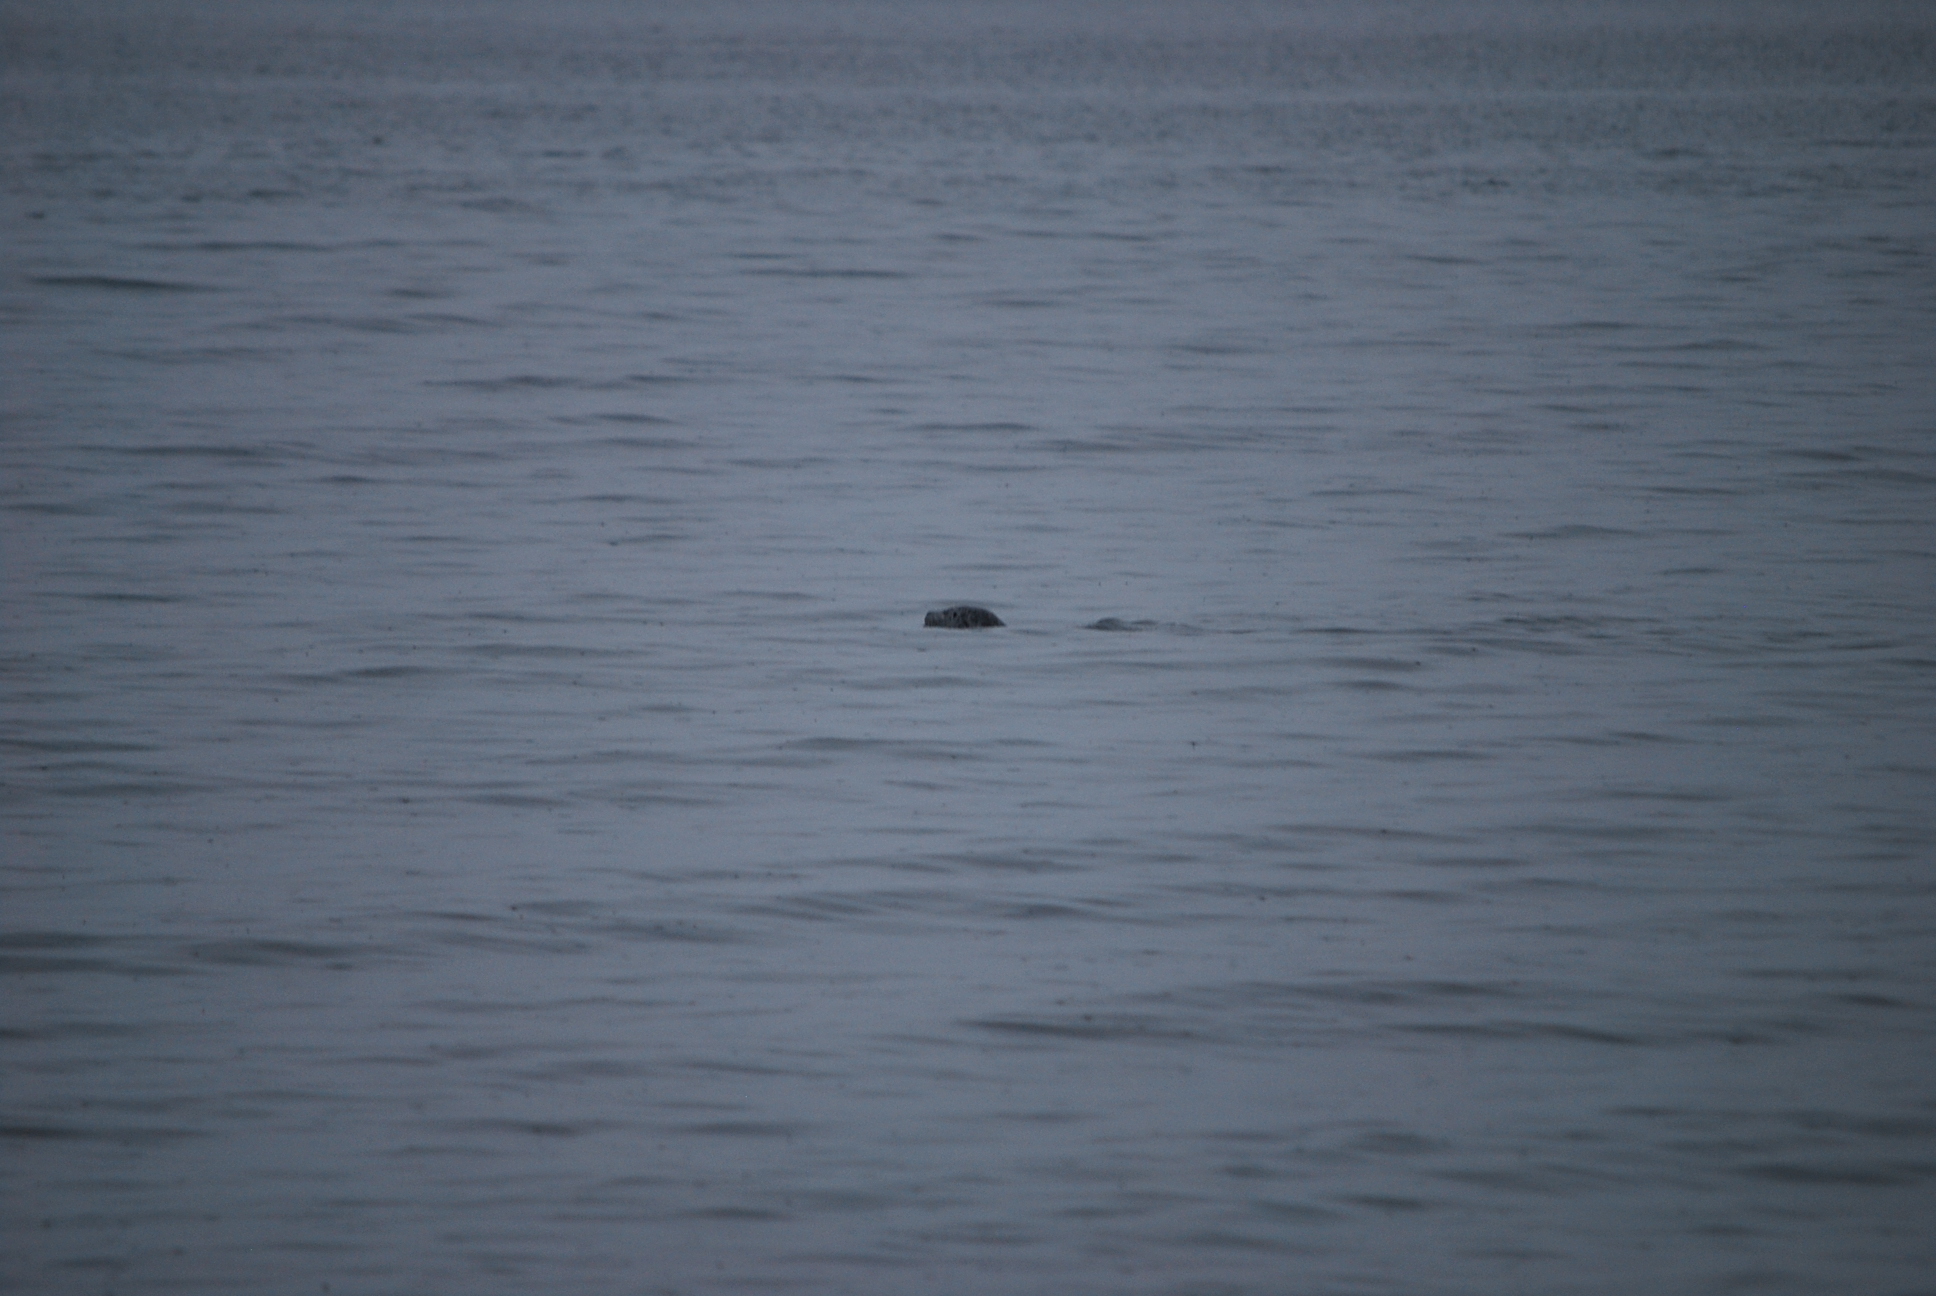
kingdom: Animalia
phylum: Chordata
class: Mammalia
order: Carnivora
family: Phocidae
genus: Phoca
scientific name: Phoca vitulina
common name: Harbor seal
